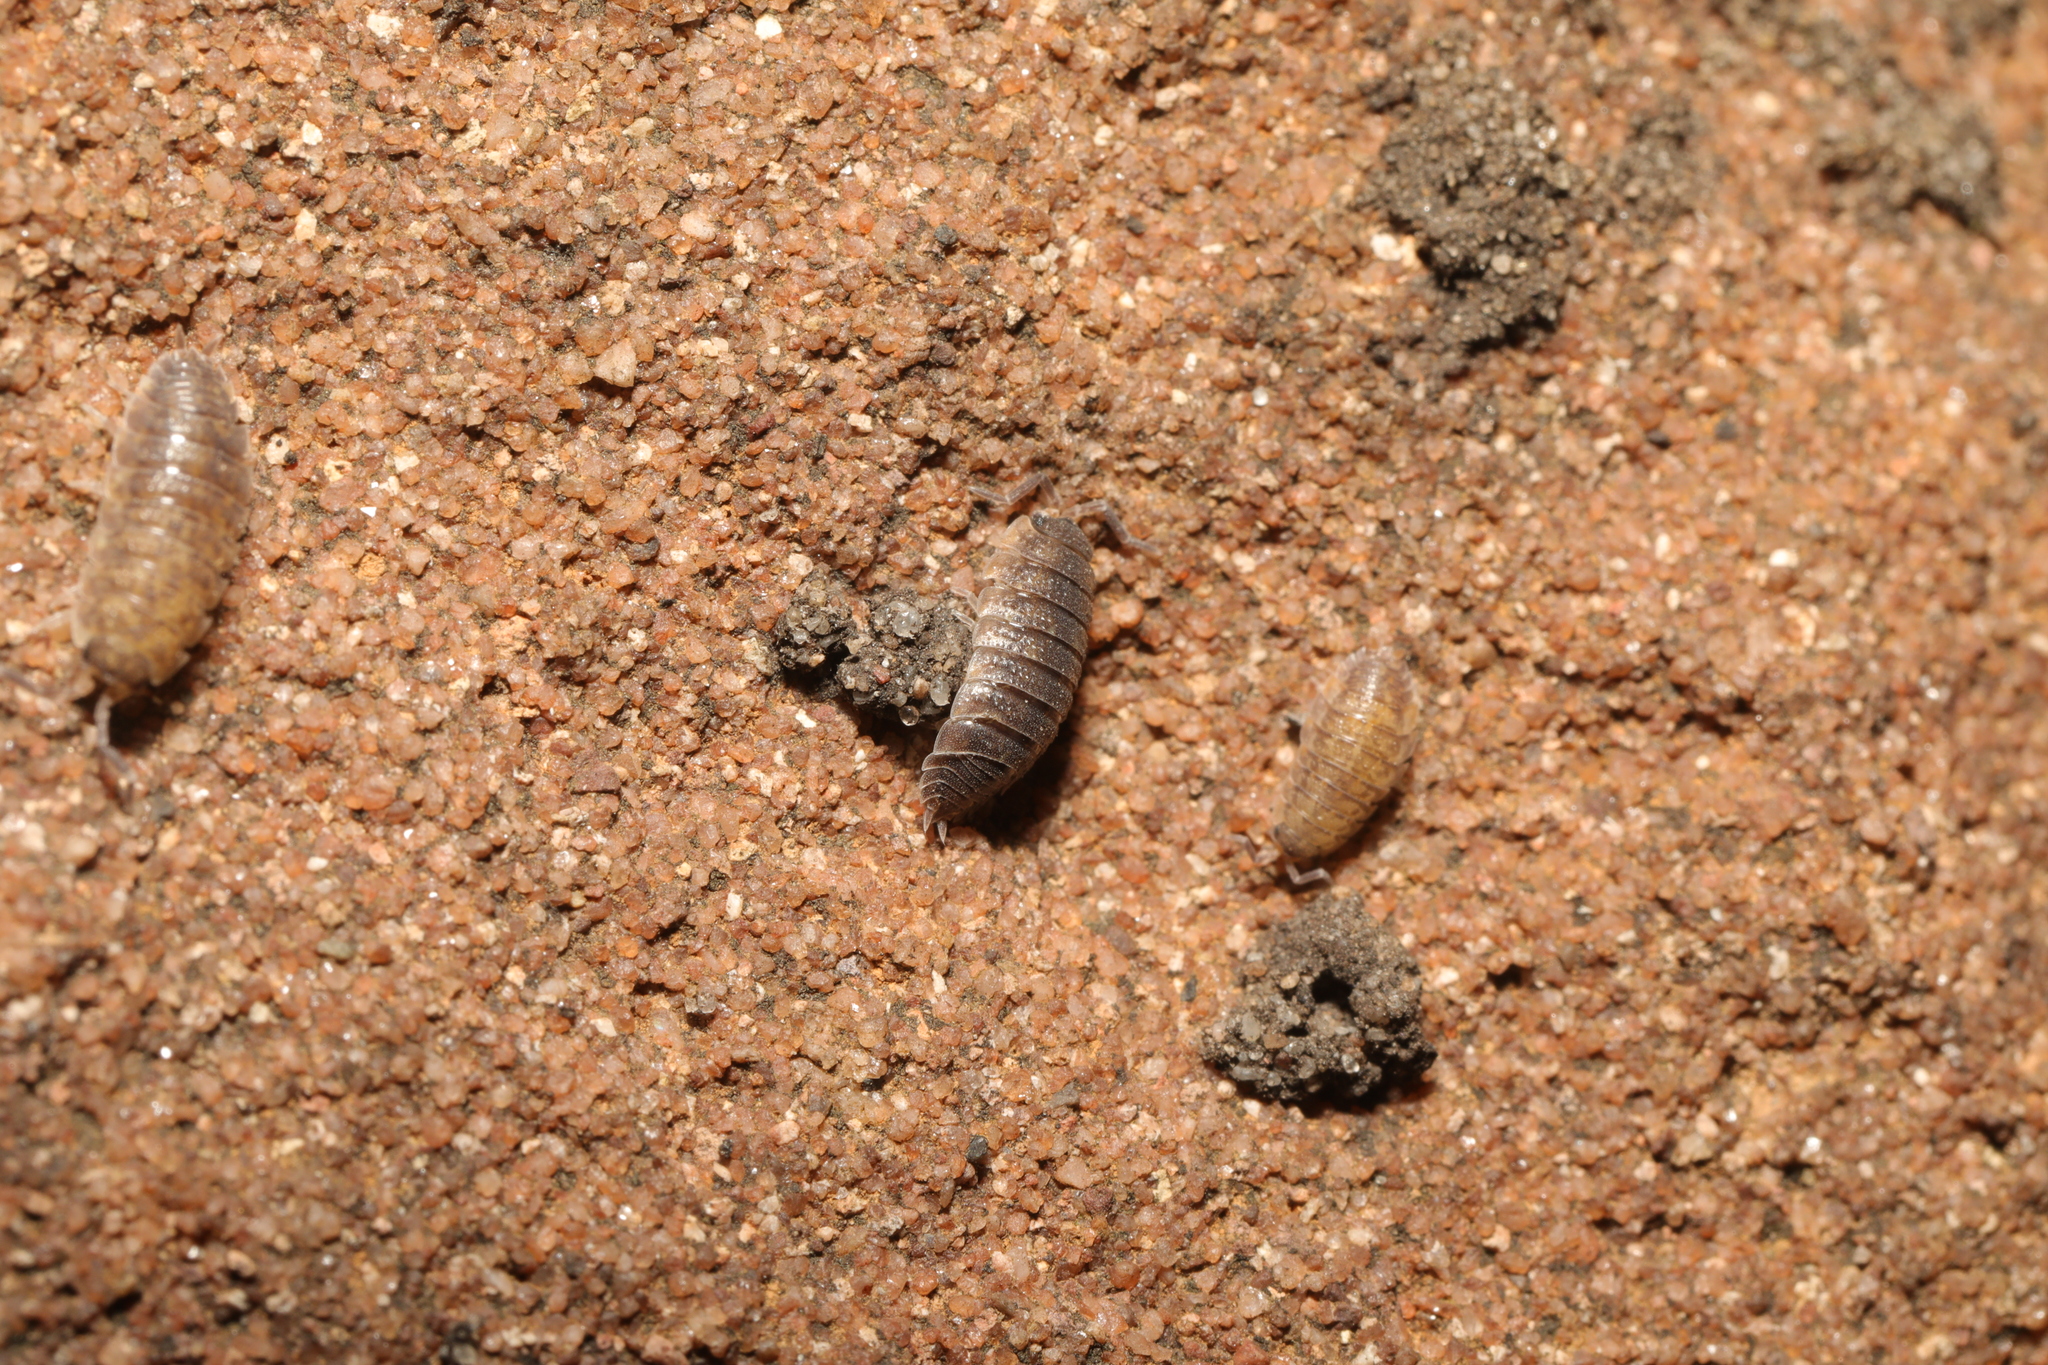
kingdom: Animalia
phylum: Arthropoda
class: Malacostraca
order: Isopoda
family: Porcellionidae
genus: Porcellio
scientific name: Porcellio scaber
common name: Common rough woodlouse
